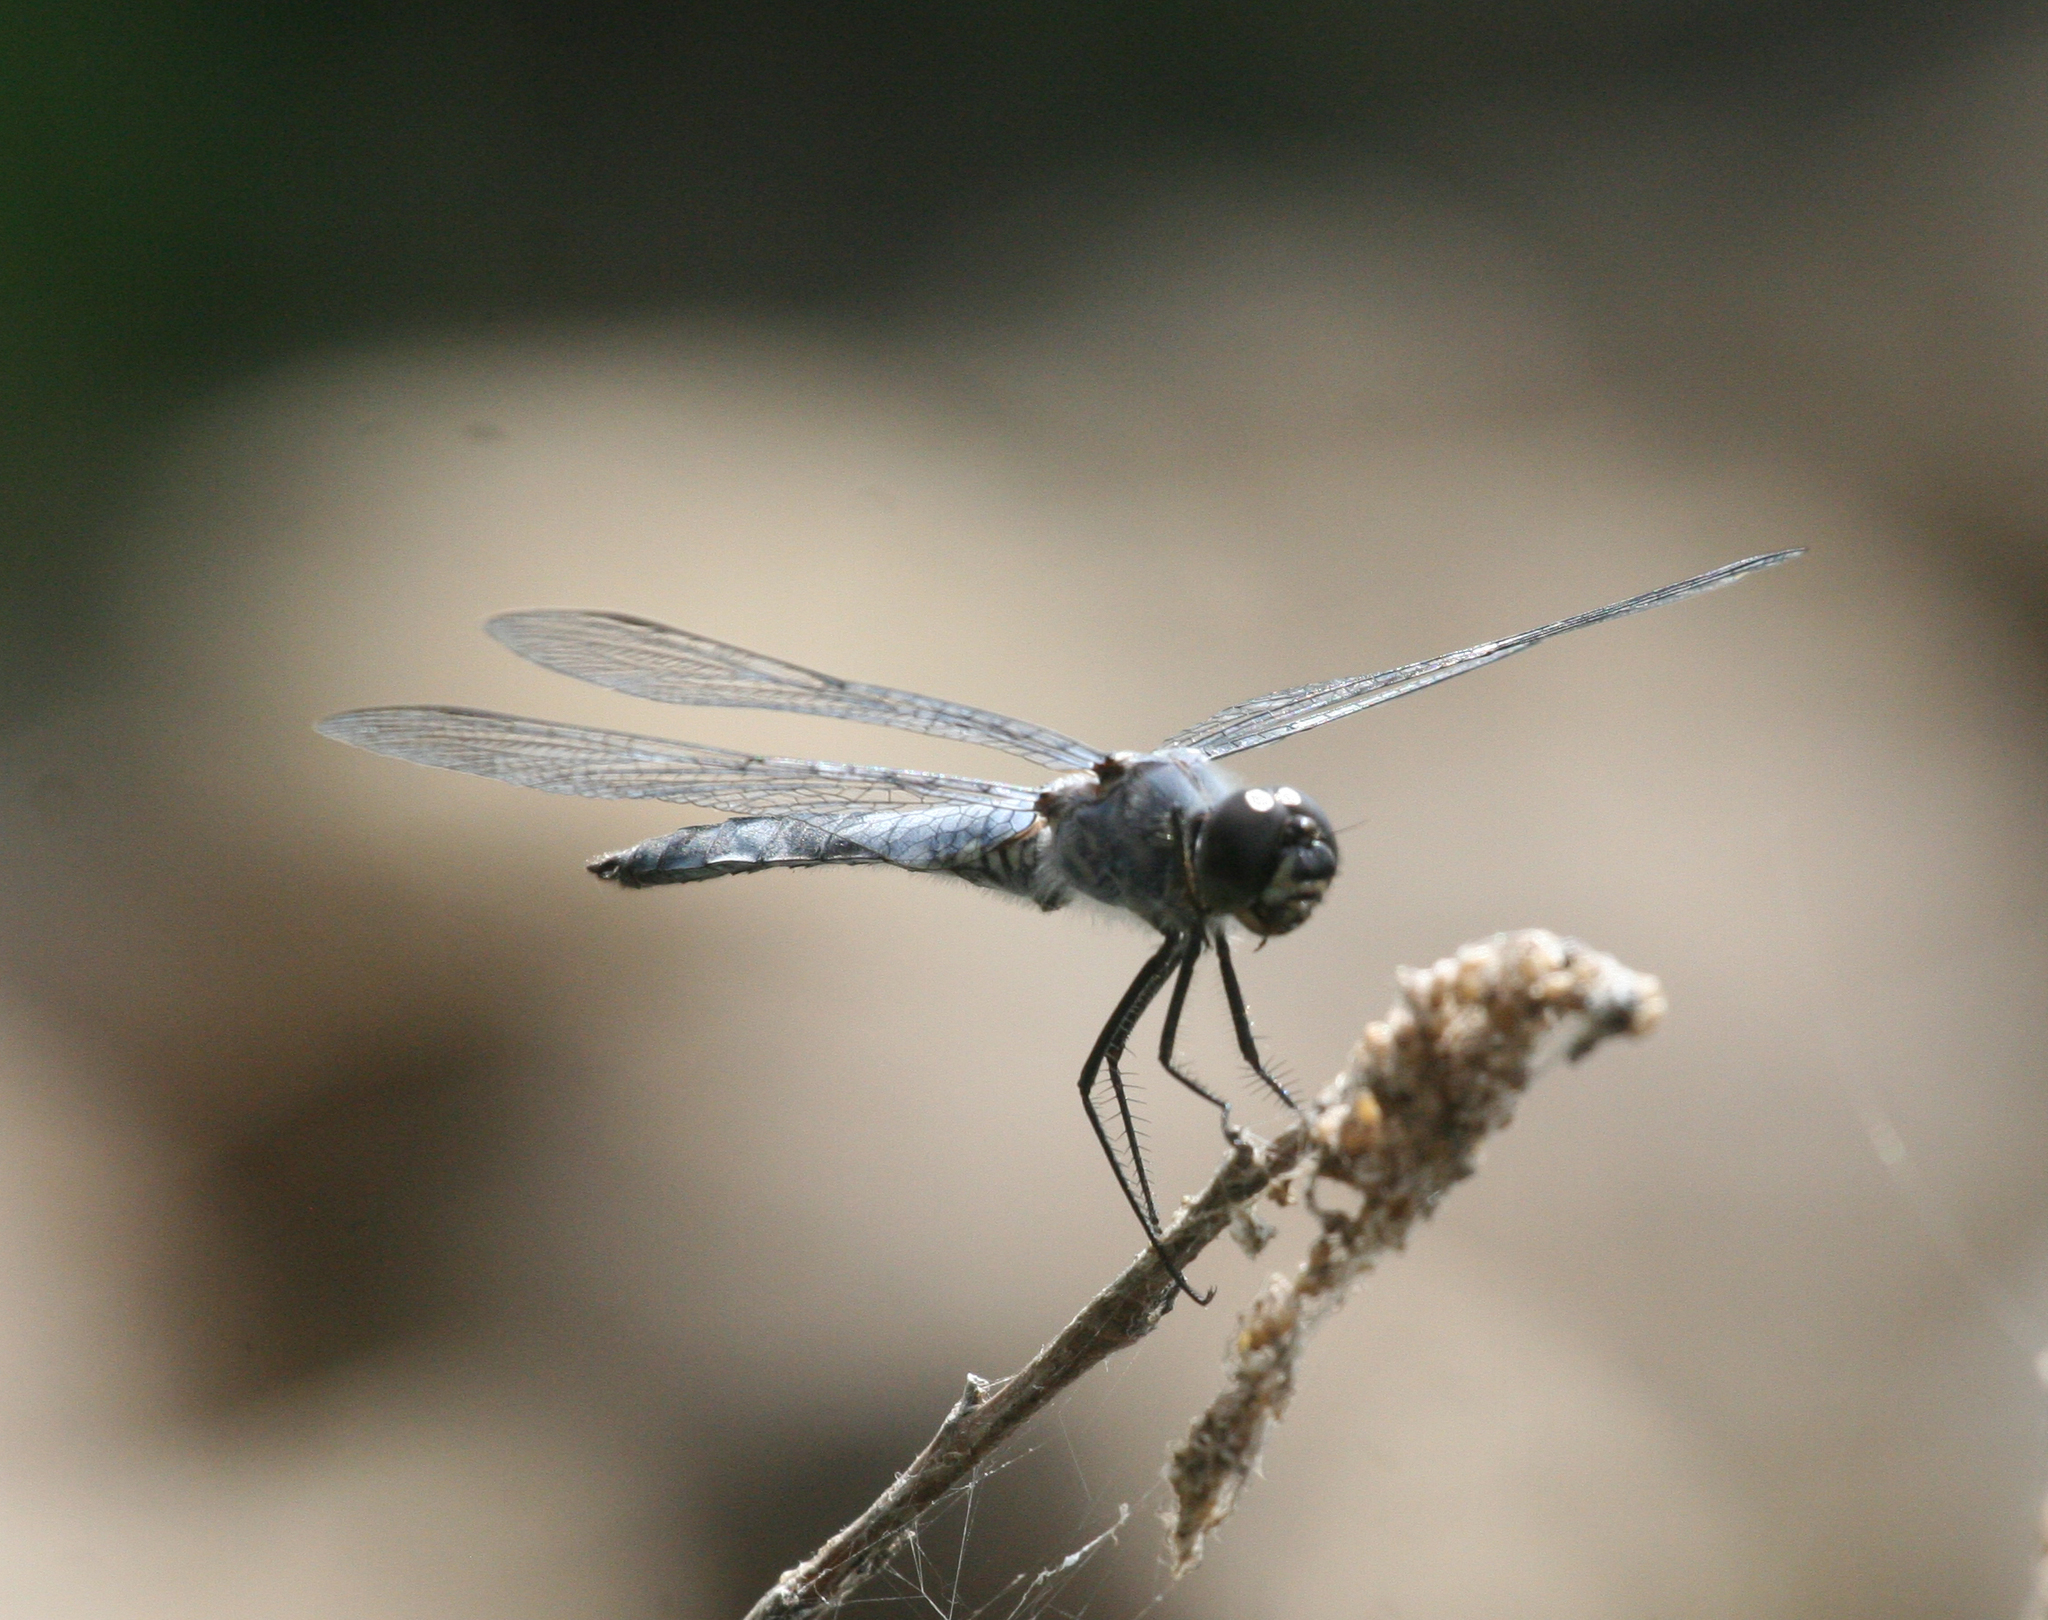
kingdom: Animalia
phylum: Arthropoda
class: Insecta
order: Odonata
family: Libellulidae
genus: Deielia
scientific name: Deielia phaon
